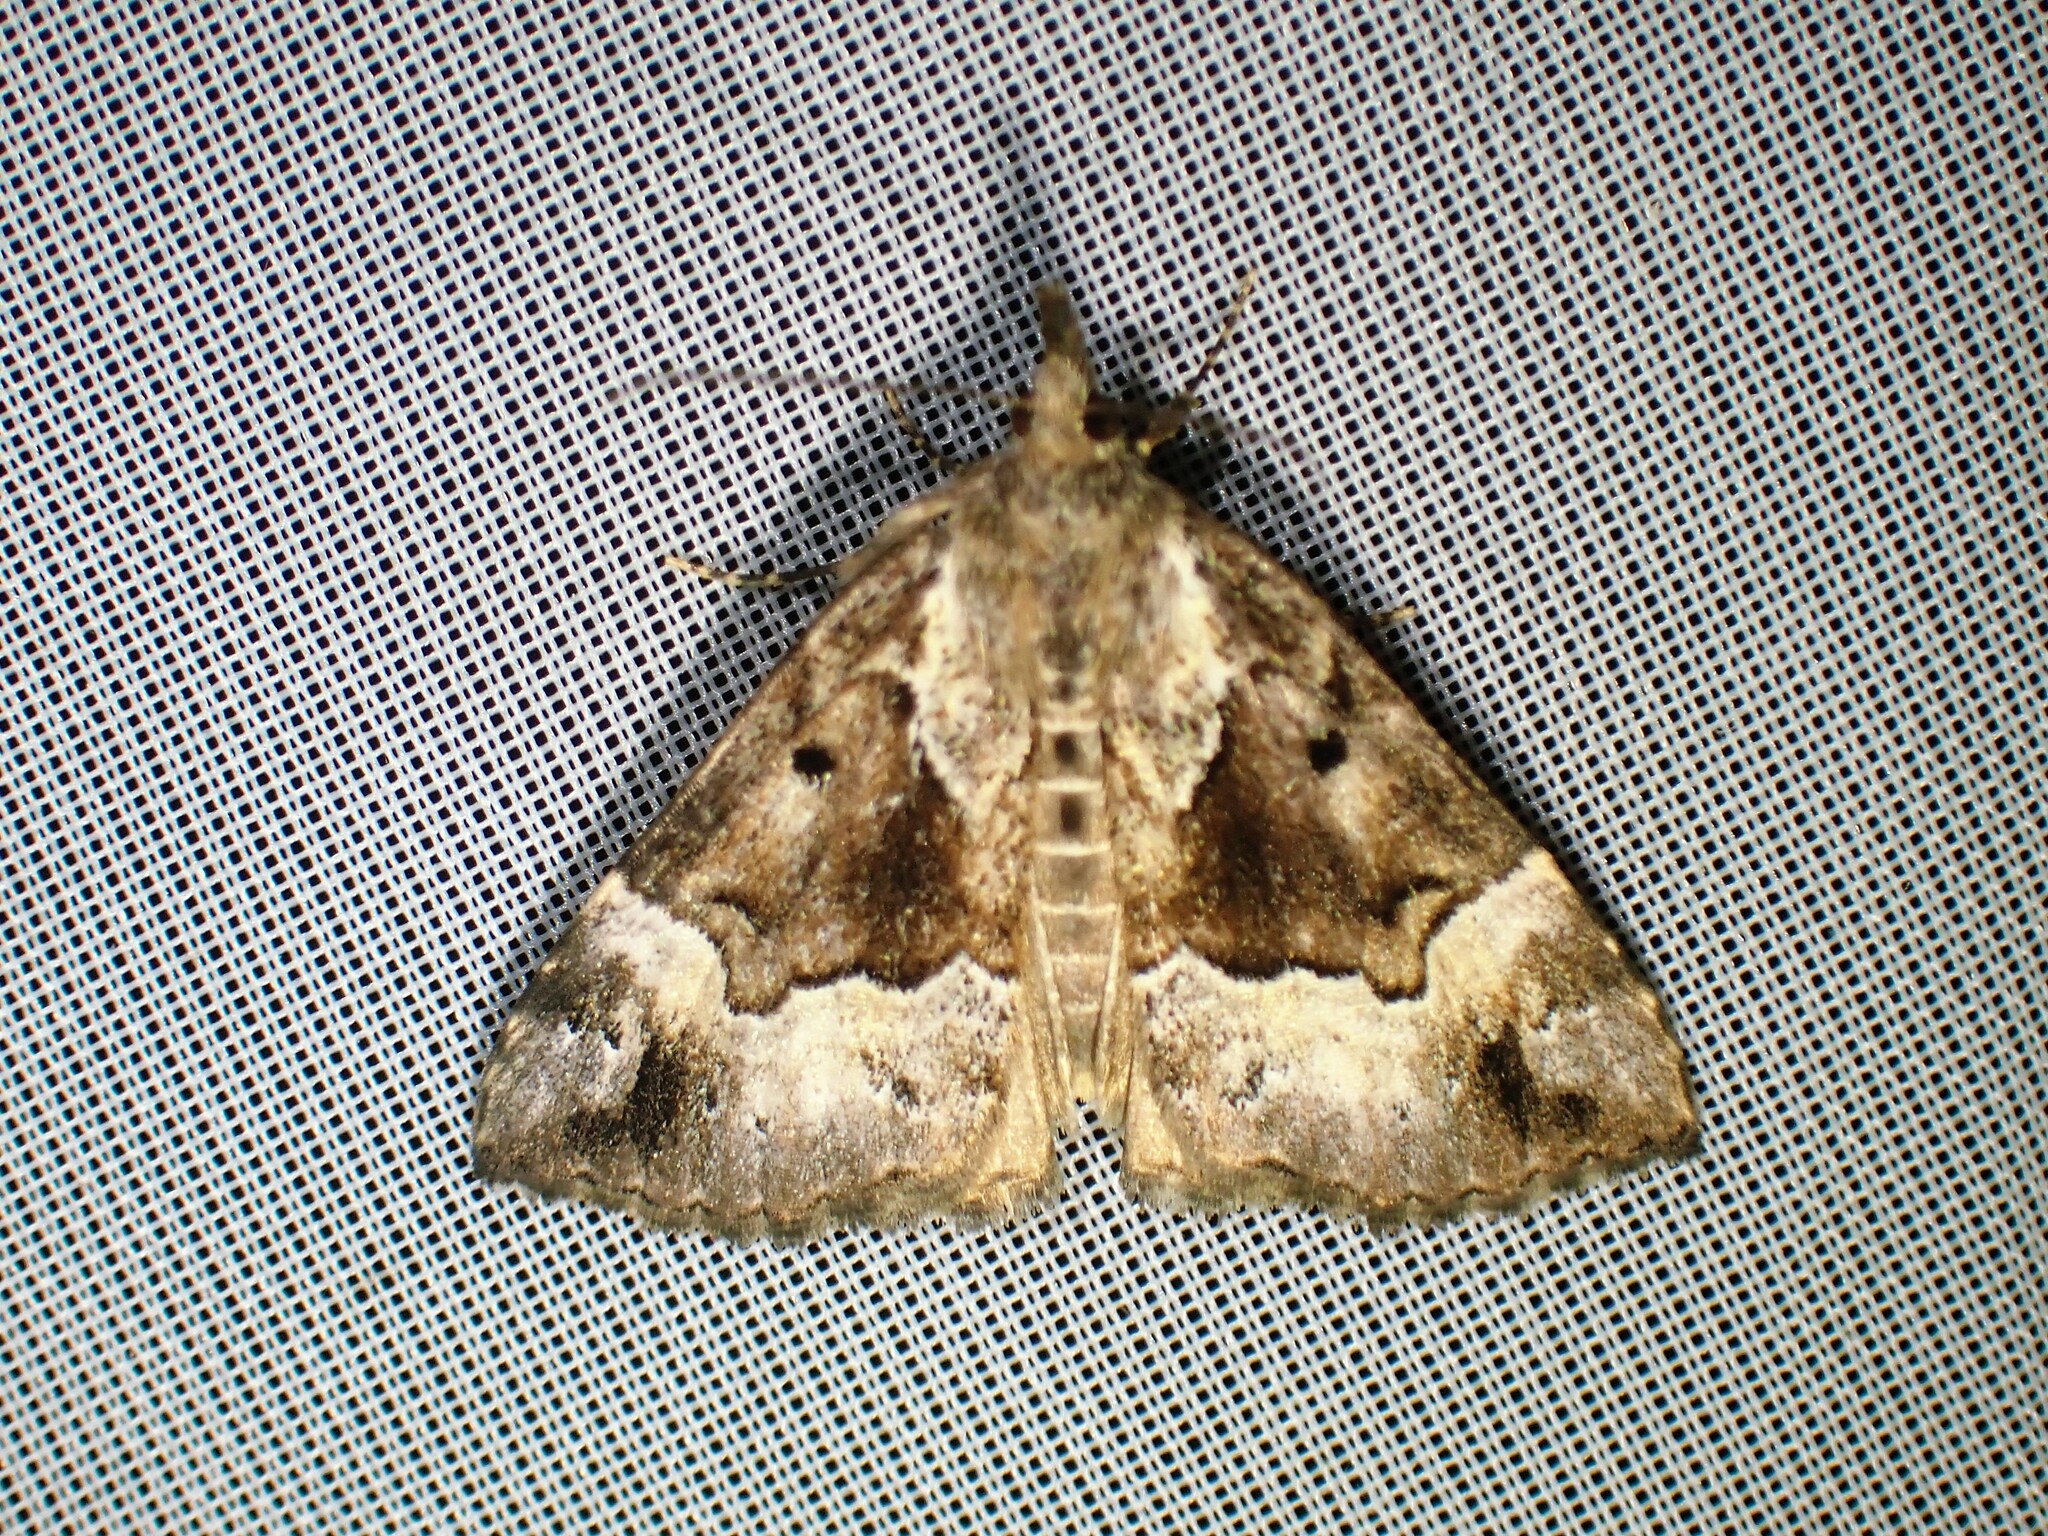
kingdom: Animalia
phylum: Arthropoda
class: Insecta
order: Lepidoptera
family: Erebidae
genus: Hypena
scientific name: Hypena palparia
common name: Mottled bomolocha moth
